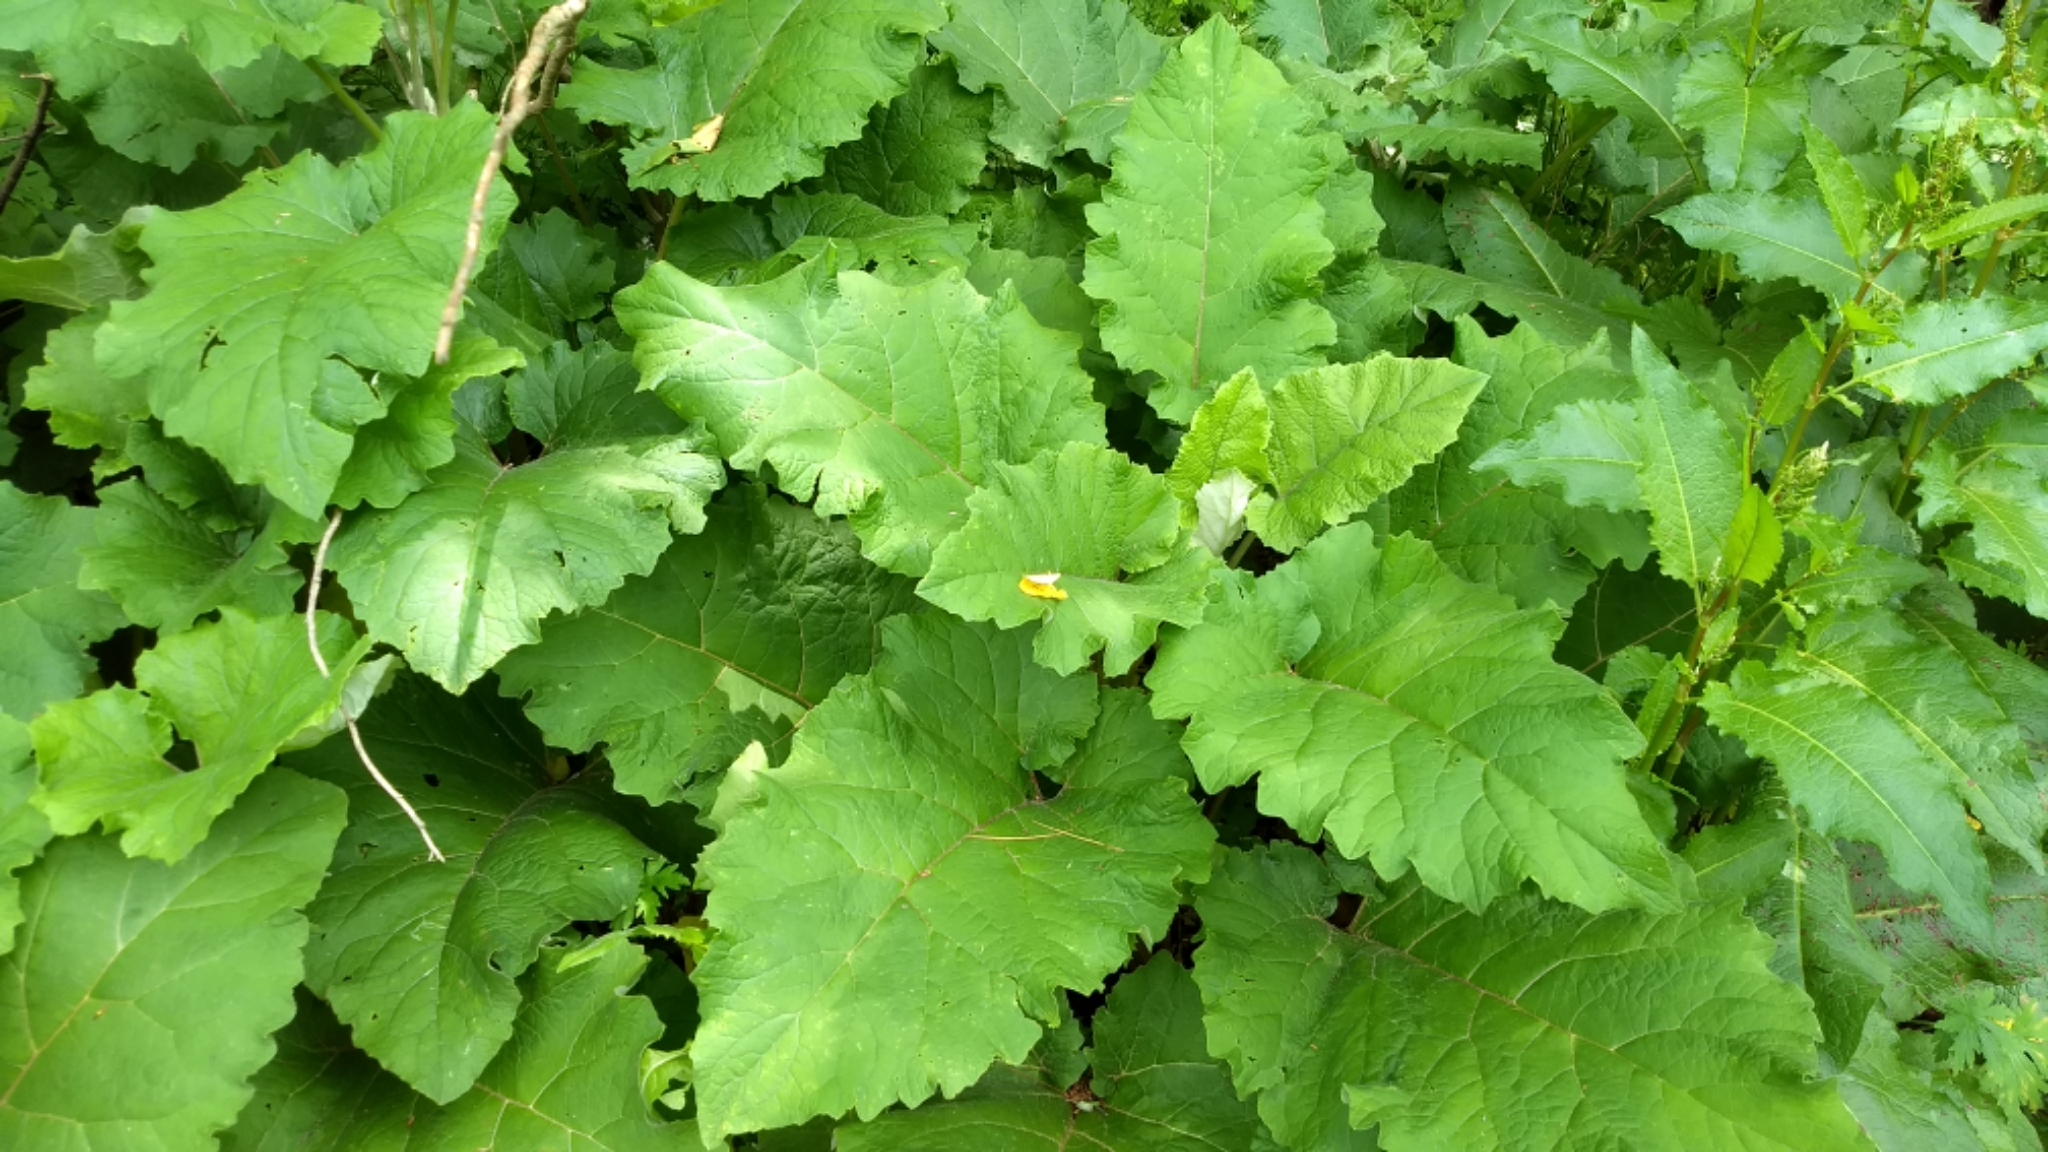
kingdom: Plantae
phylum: Tracheophyta
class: Magnoliopsida
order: Asterales
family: Asteraceae
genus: Arctium
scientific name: Arctium minus
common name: Lesser burdock
